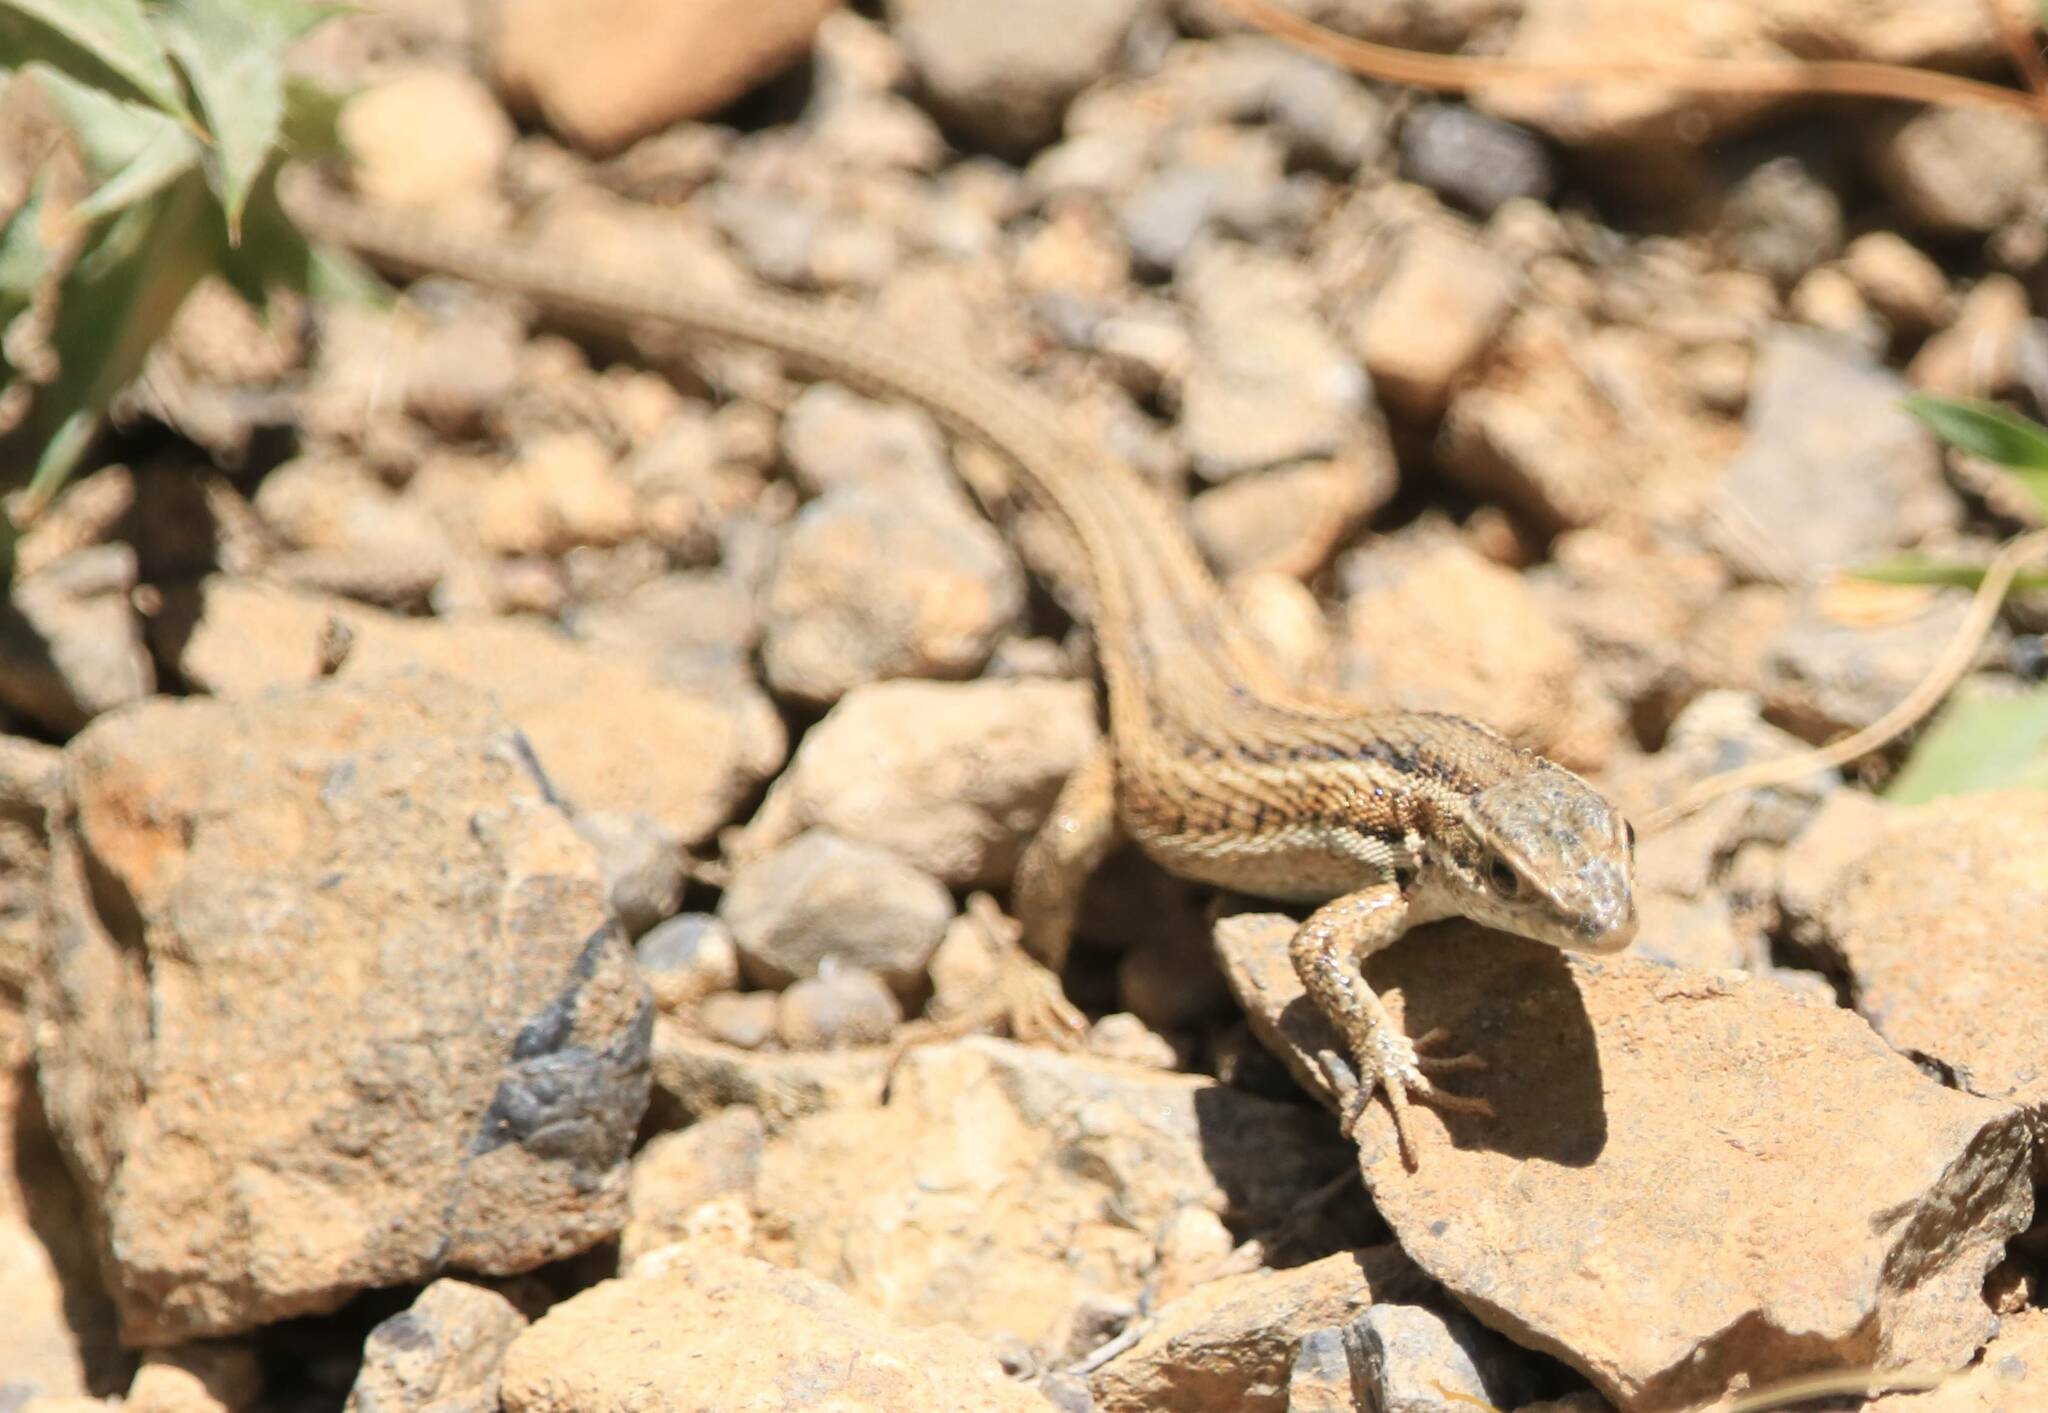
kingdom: Animalia
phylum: Chordata
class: Squamata
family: Lacertidae
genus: Ophisops
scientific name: Ophisops occidentalis
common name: Western snake-eyed lizard
